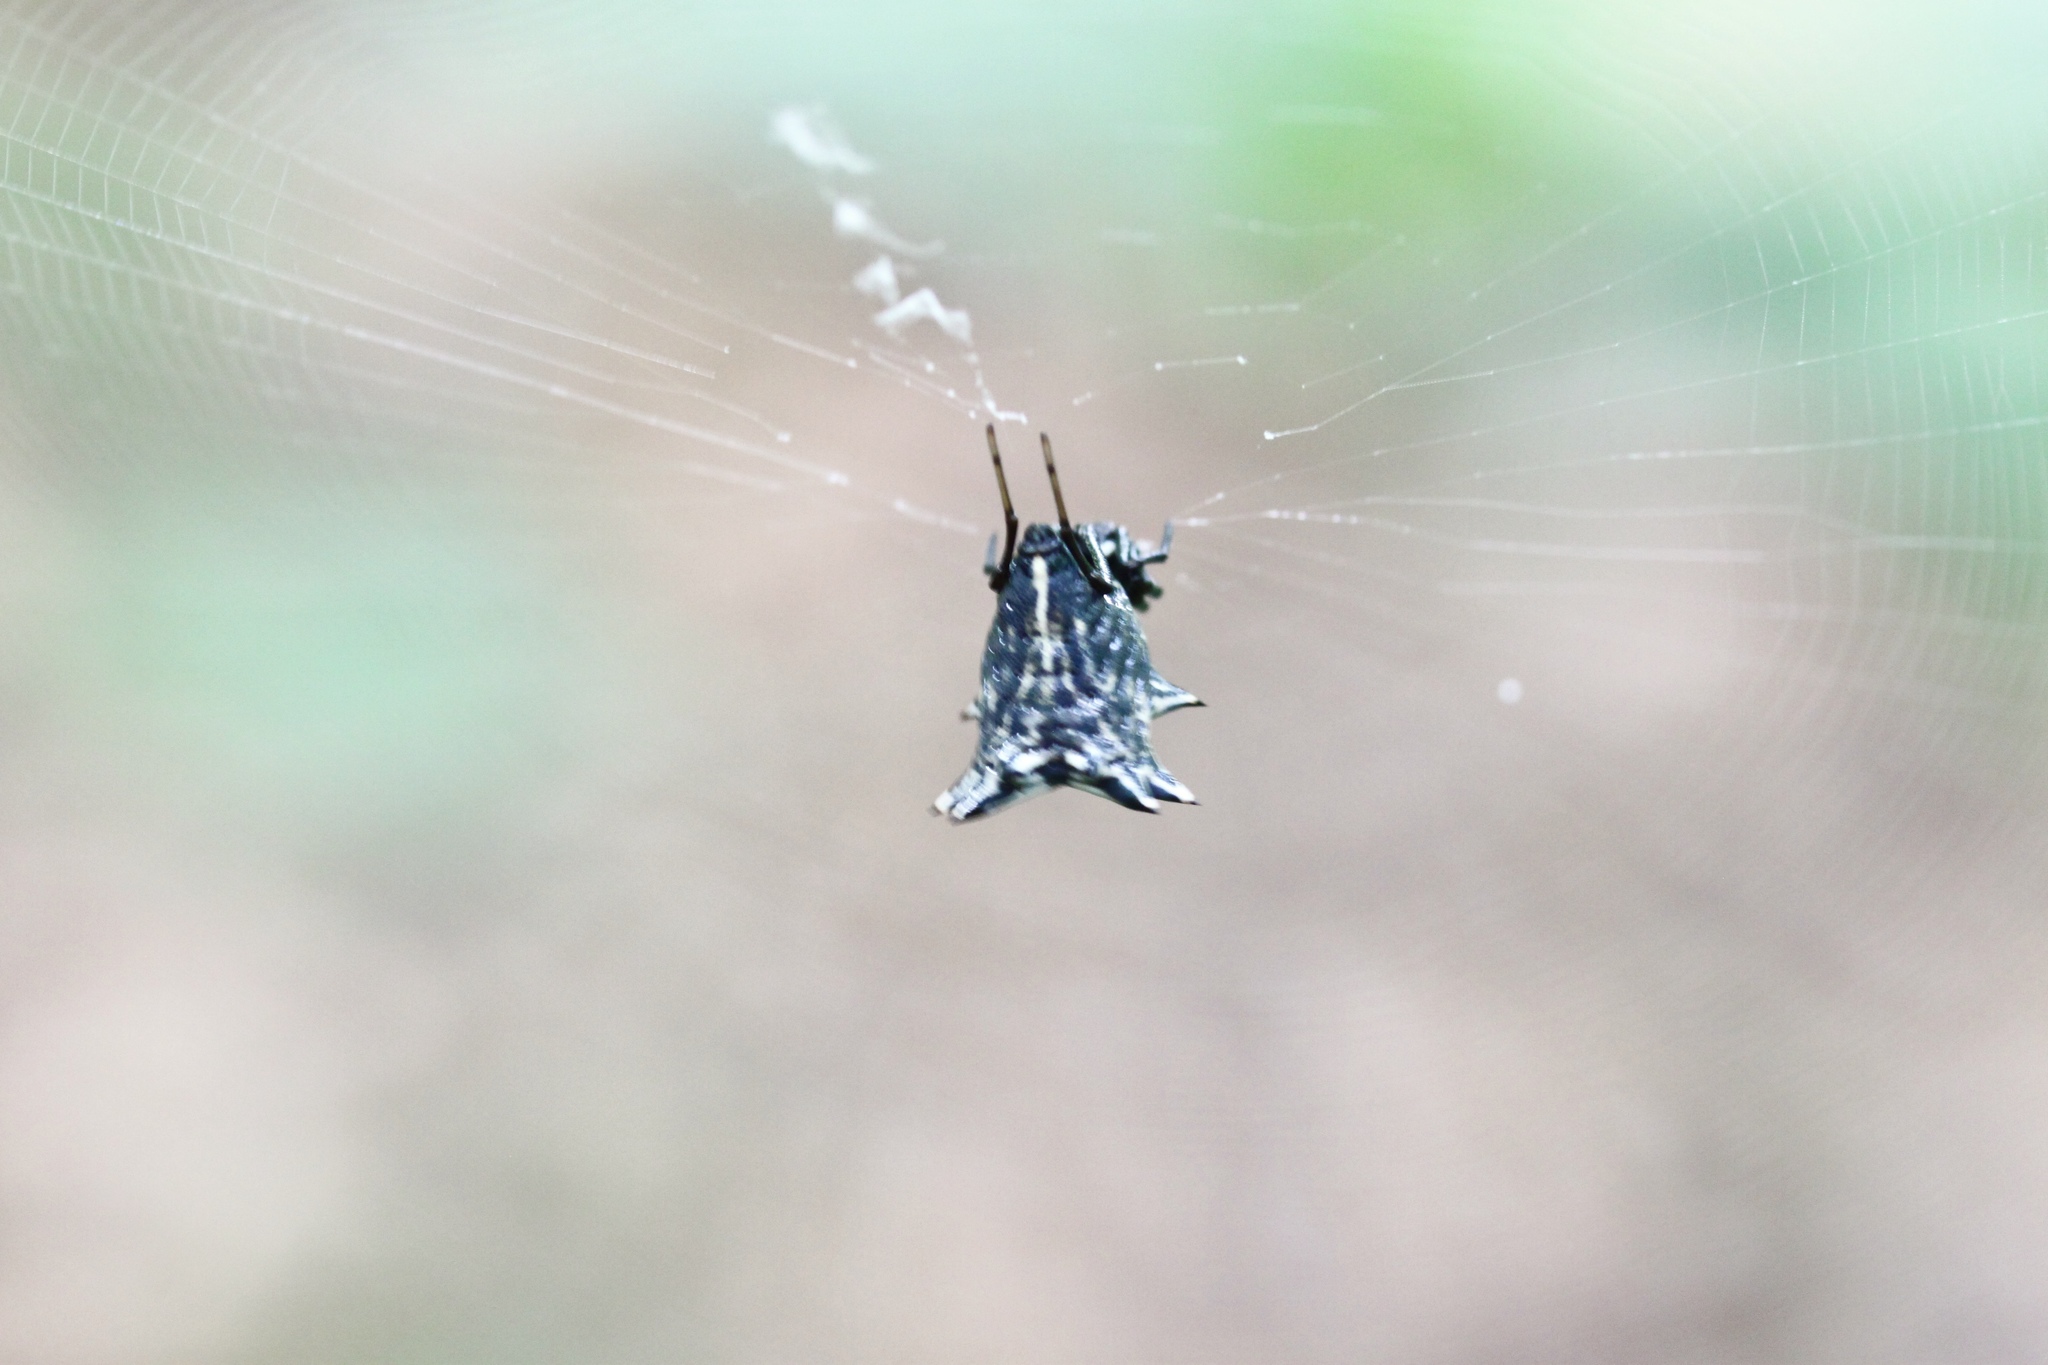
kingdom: Animalia
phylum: Arthropoda
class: Arachnida
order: Araneae
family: Araneidae
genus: Micrathena
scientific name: Micrathena gracilis
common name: Orb weavers
